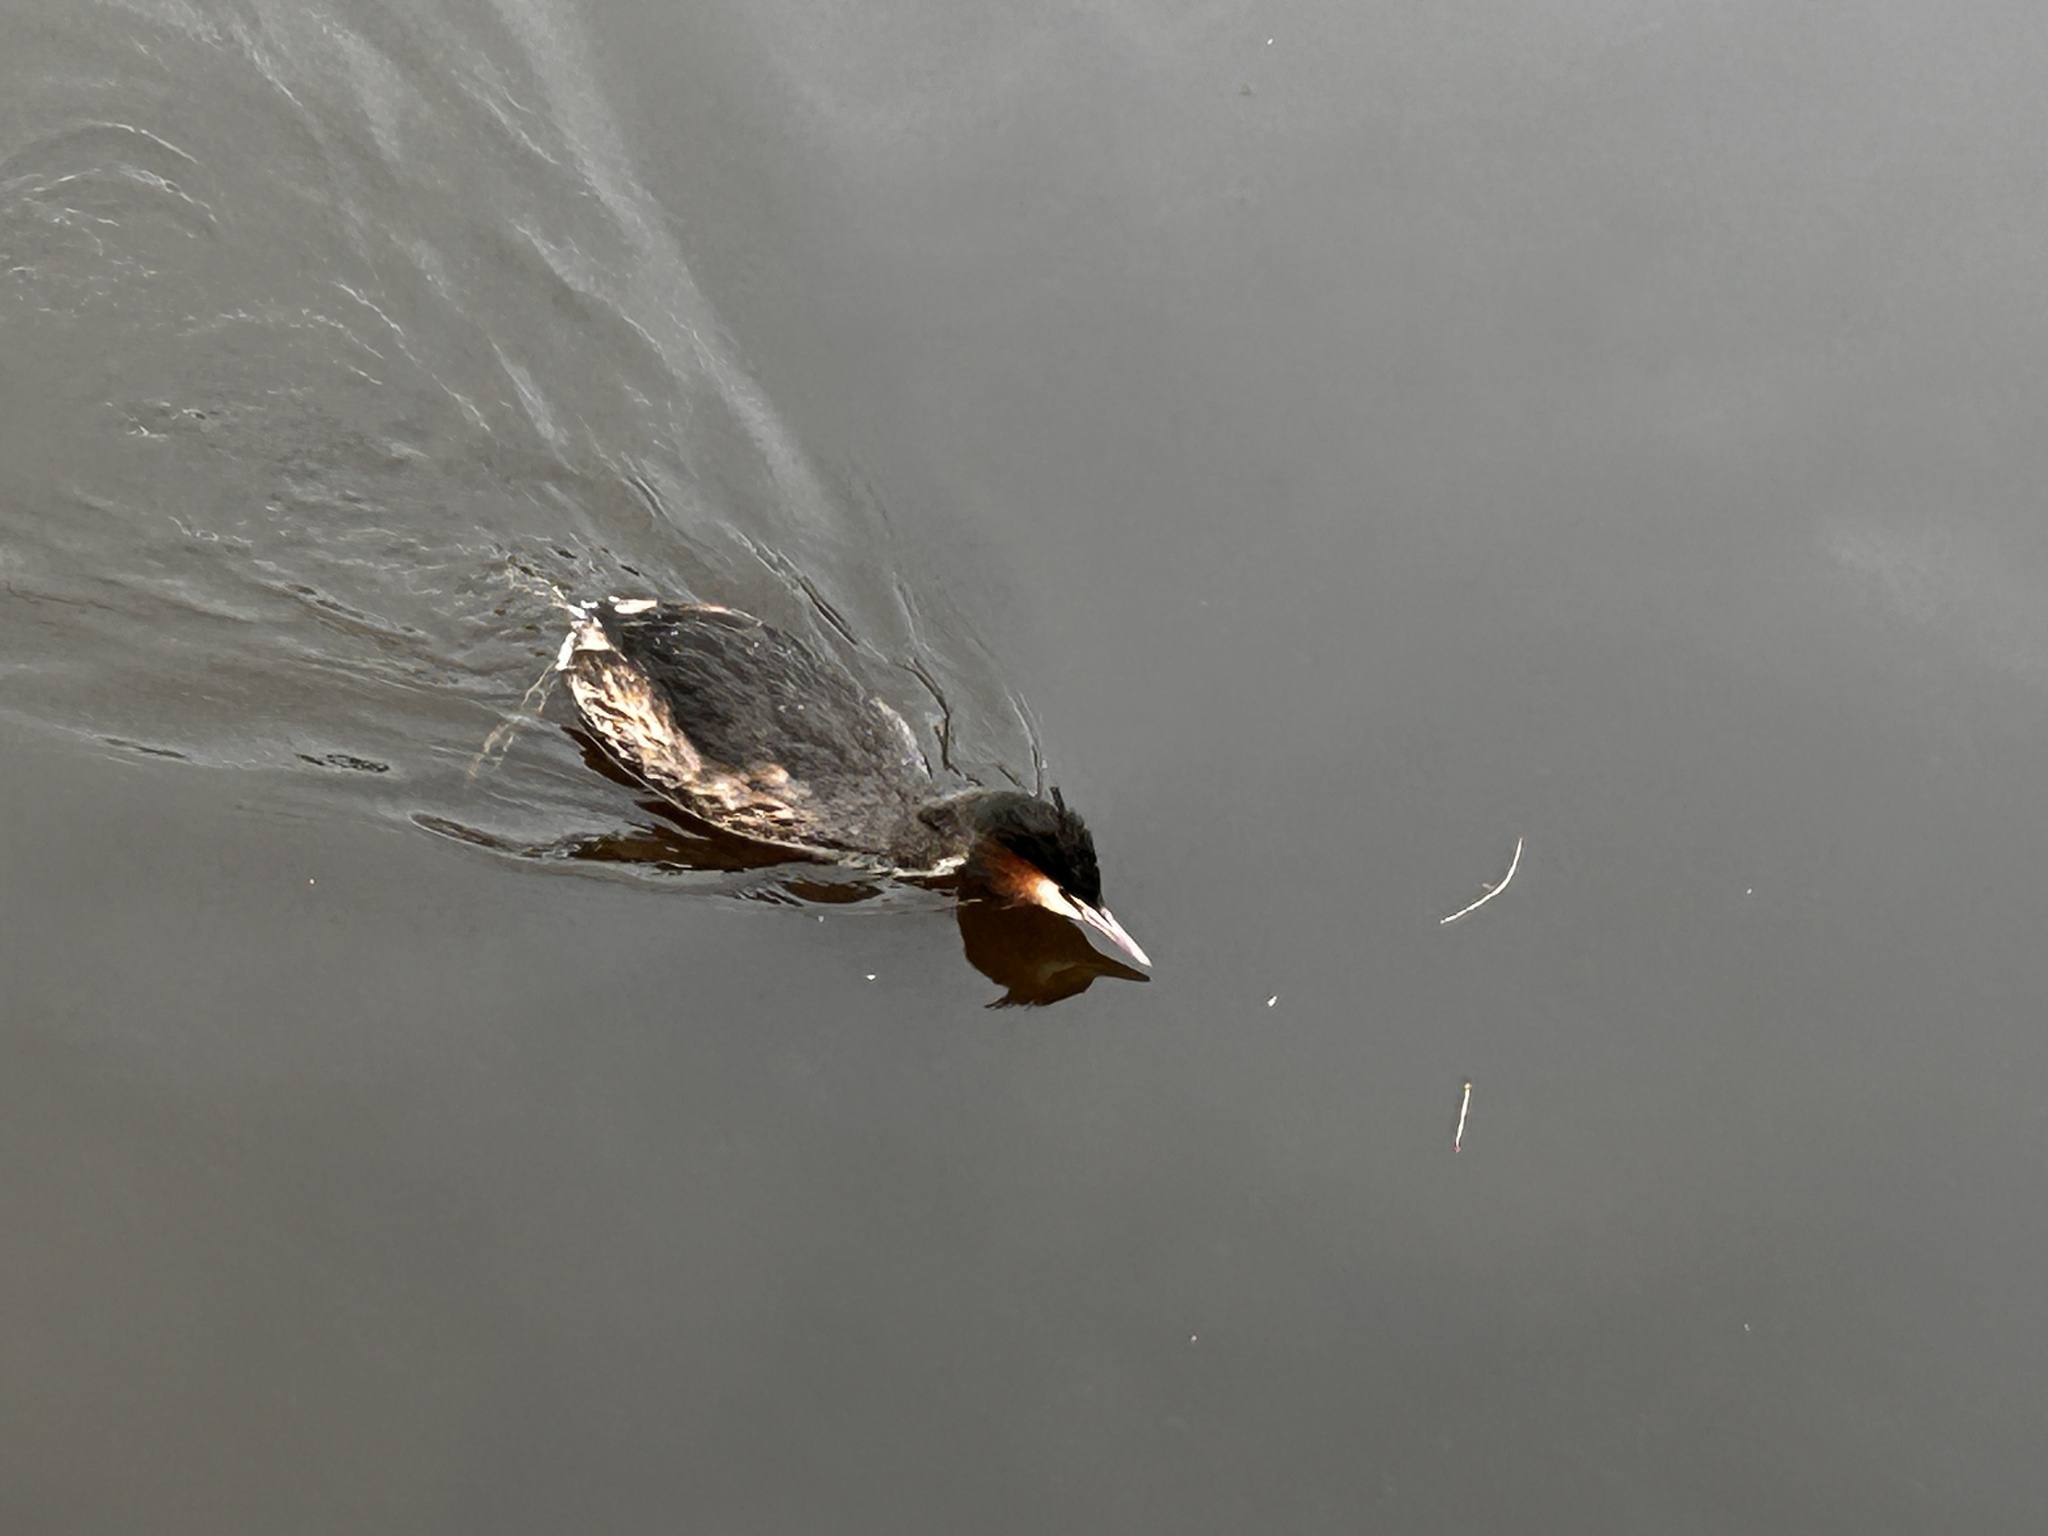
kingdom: Animalia
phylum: Chordata
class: Aves
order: Podicipediformes
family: Podicipedidae
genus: Podiceps
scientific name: Podiceps cristatus
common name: Great crested grebe
